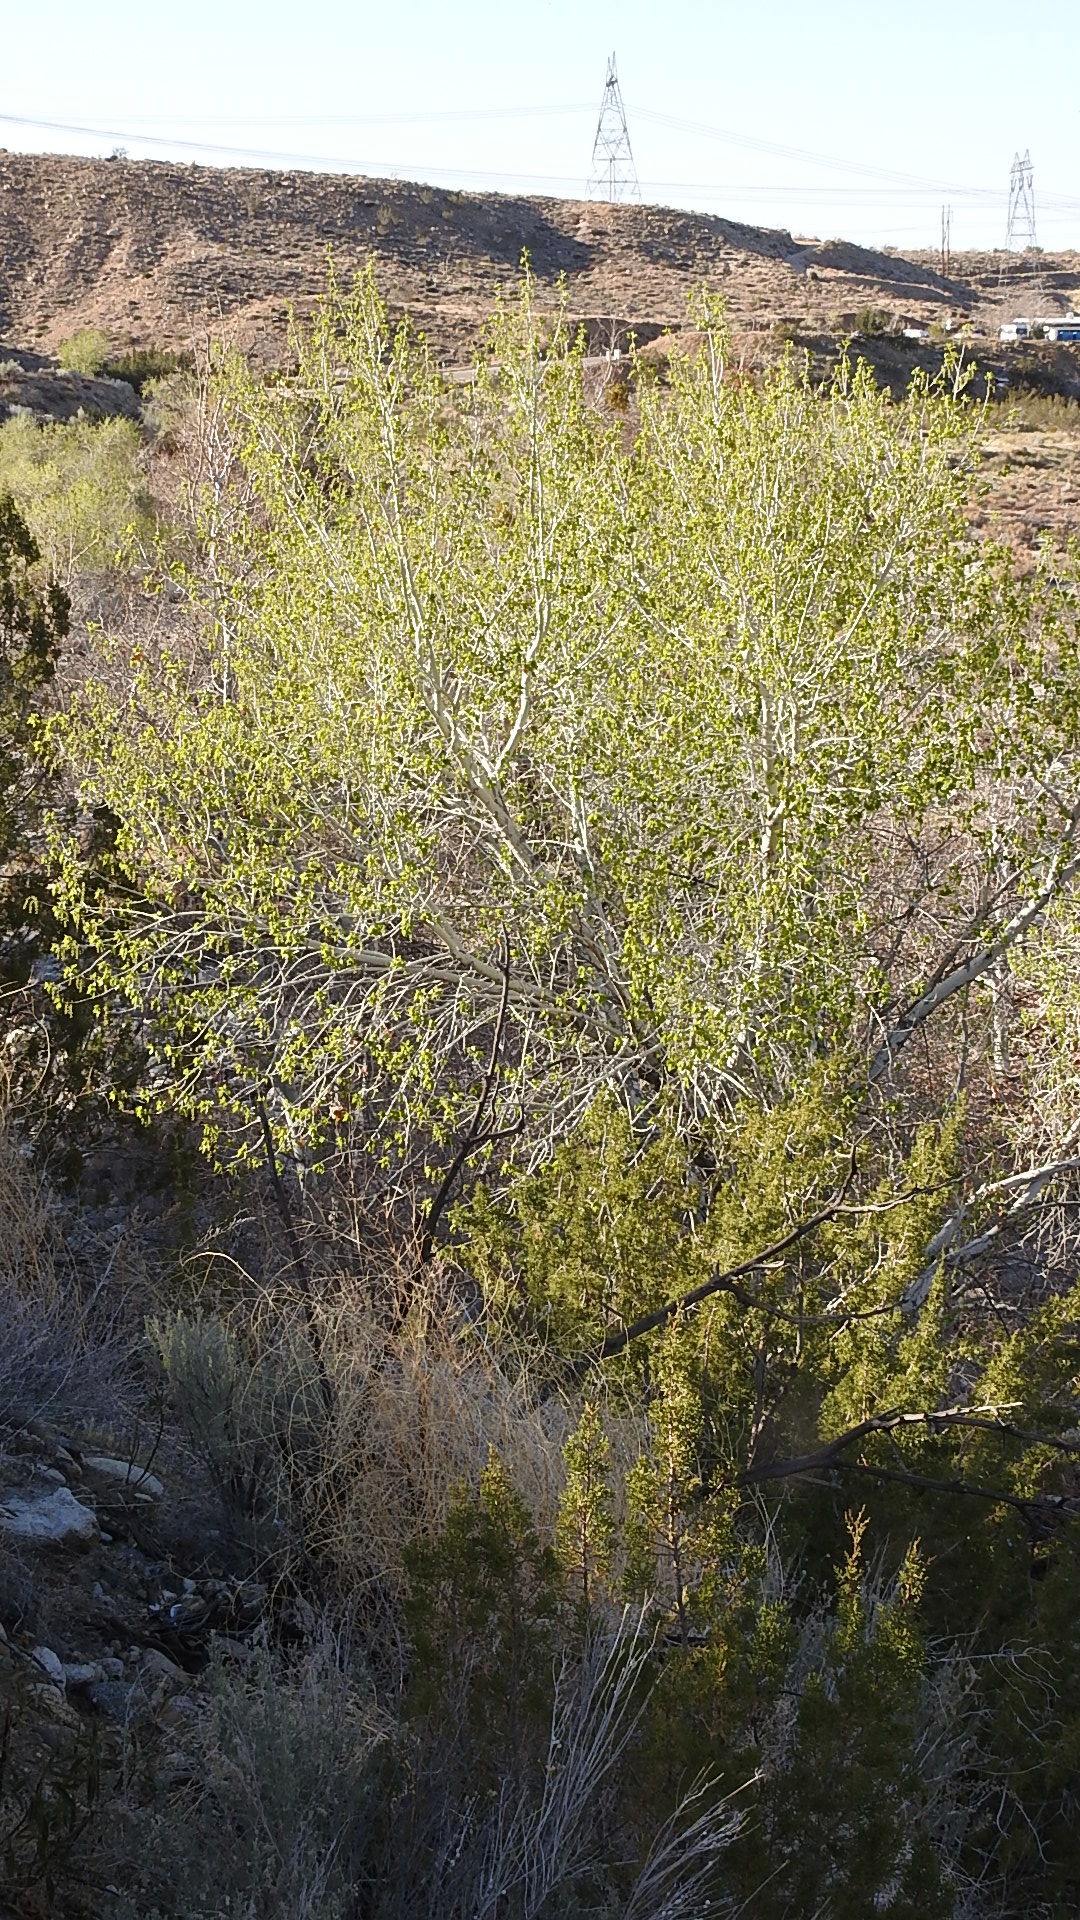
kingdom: Plantae
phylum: Tracheophyta
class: Magnoliopsida
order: Malpighiales
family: Salicaceae
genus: Populus
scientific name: Populus fremontii
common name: Fremont's cottonwood
